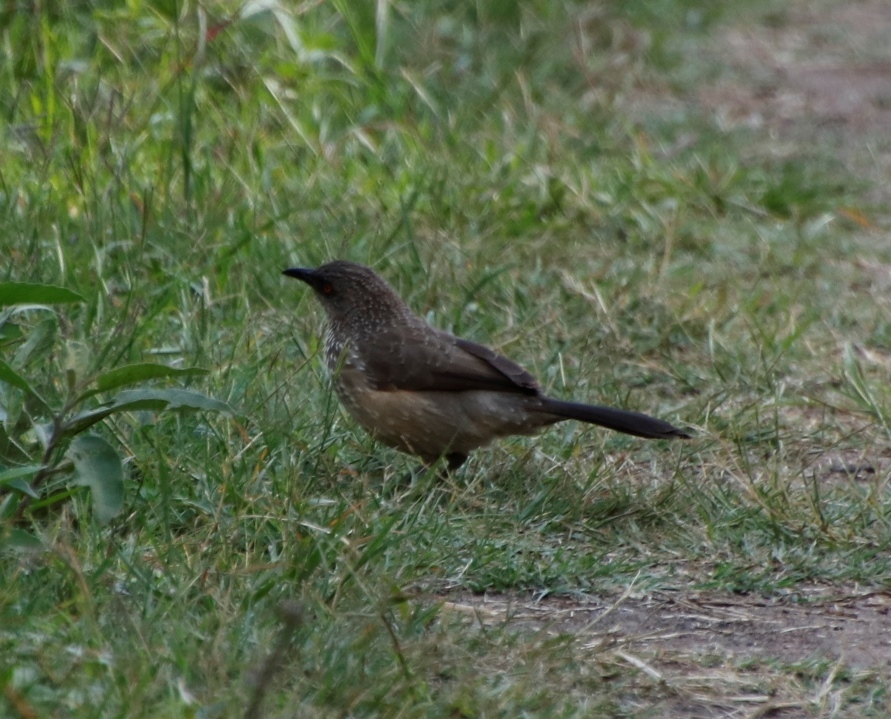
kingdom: Animalia
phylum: Chordata
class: Aves
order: Passeriformes
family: Leiothrichidae
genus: Turdoides
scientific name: Turdoides jardineii
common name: Arrow-marked babbler
